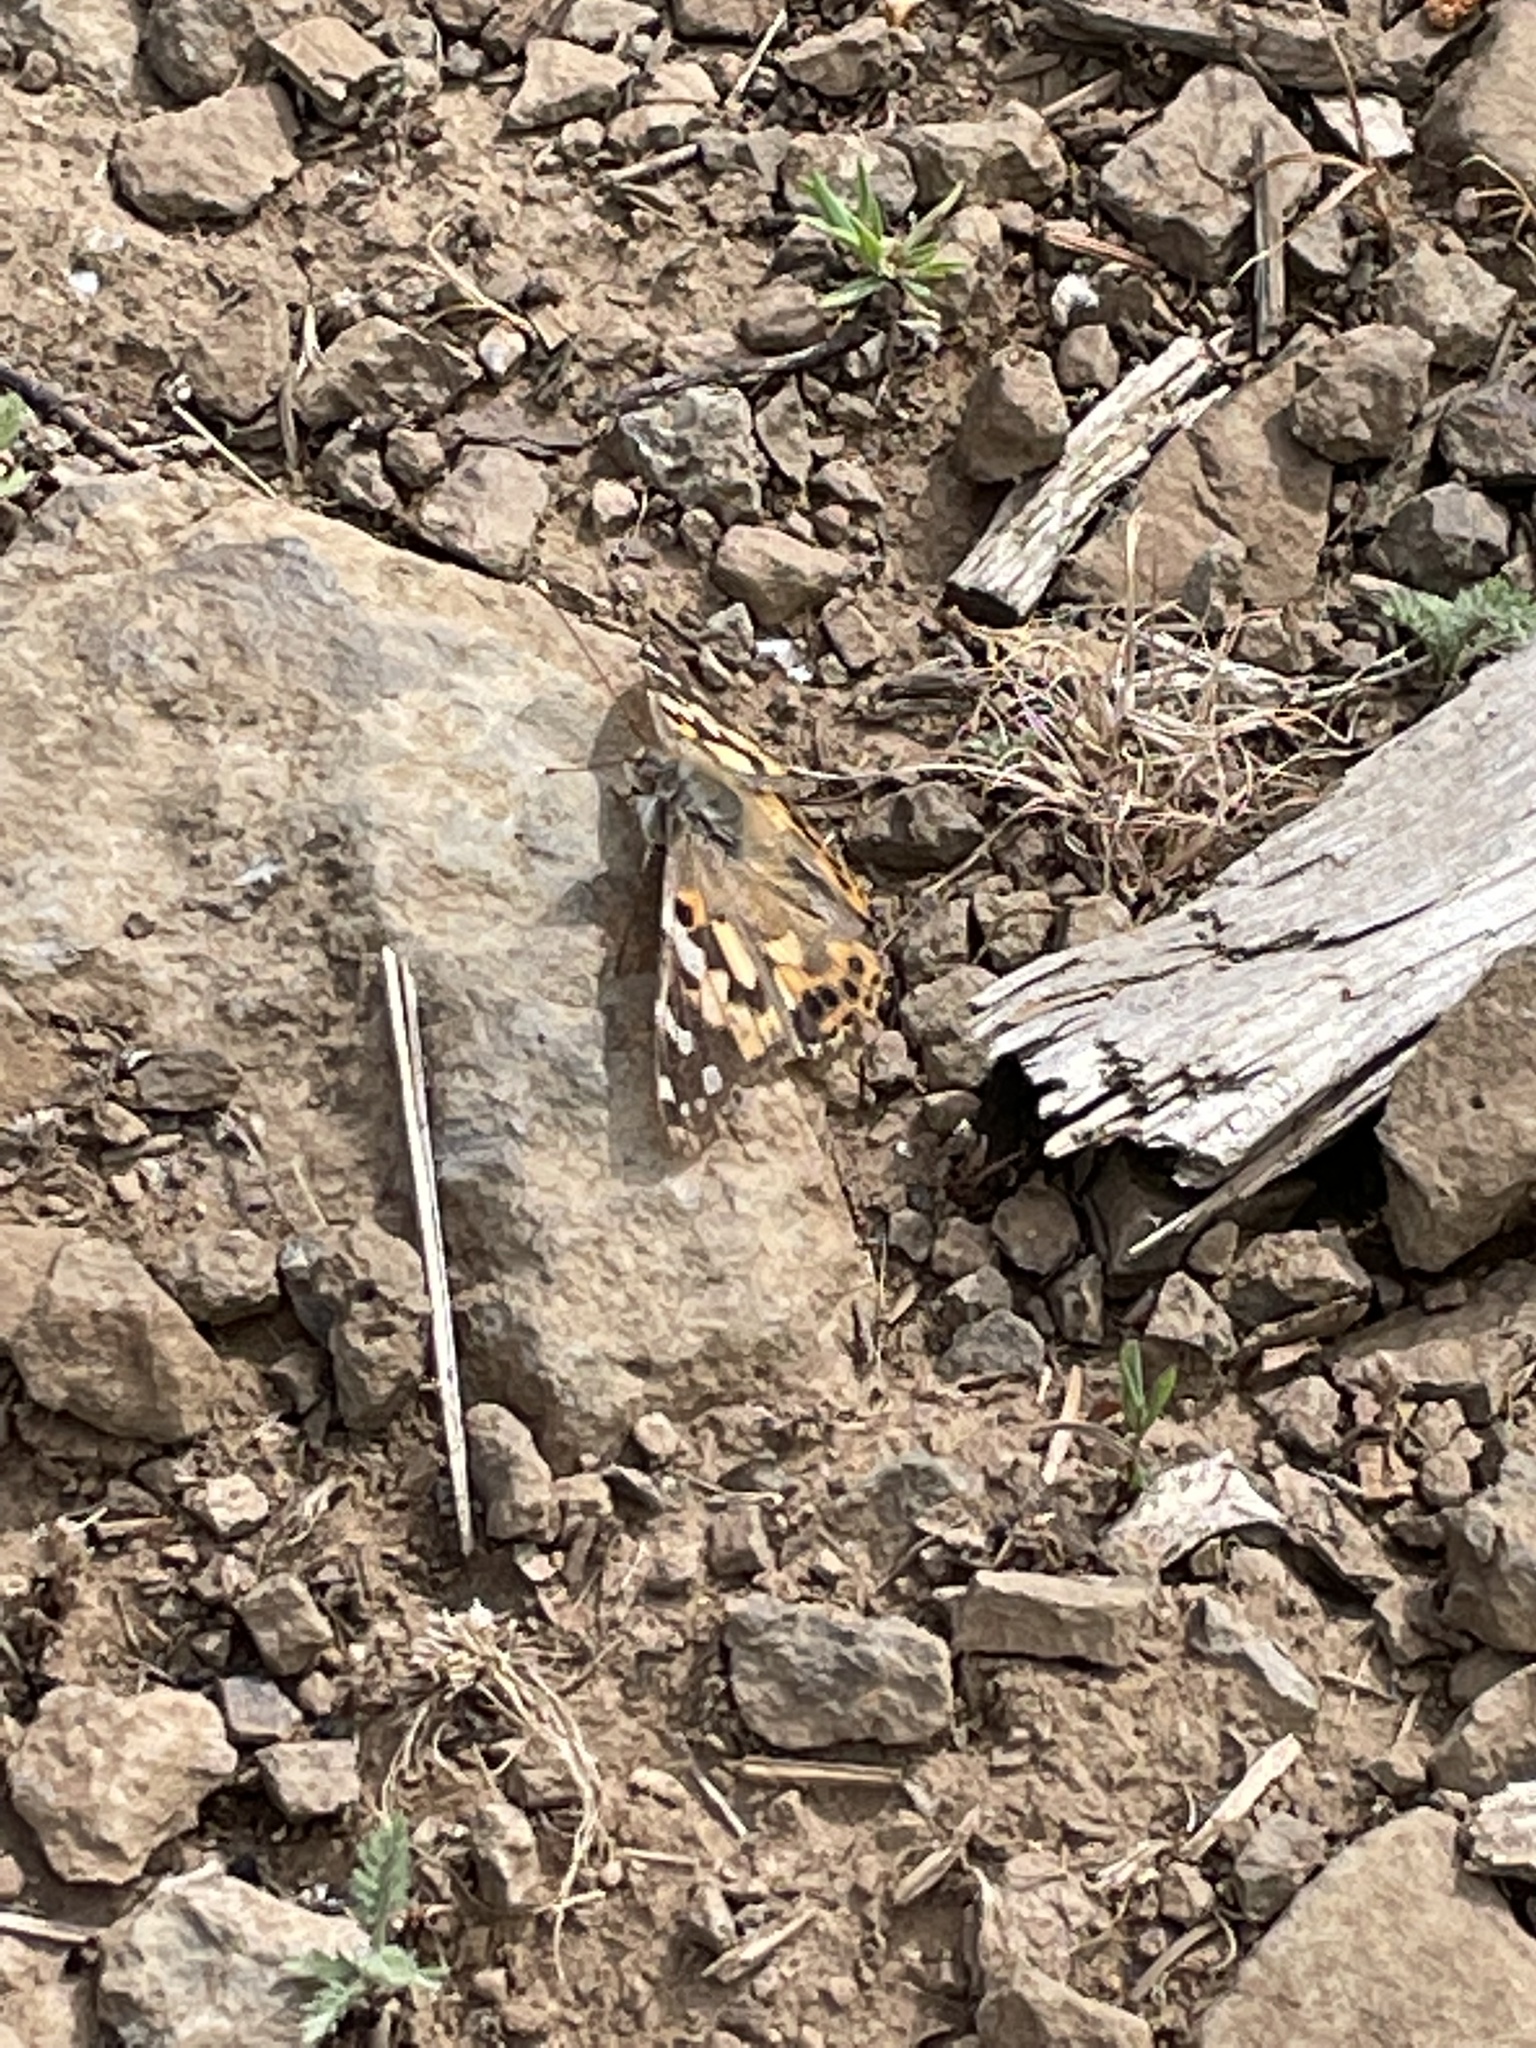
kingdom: Animalia
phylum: Arthropoda
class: Insecta
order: Lepidoptera
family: Nymphalidae
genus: Vanessa
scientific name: Vanessa cardui
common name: Painted lady
